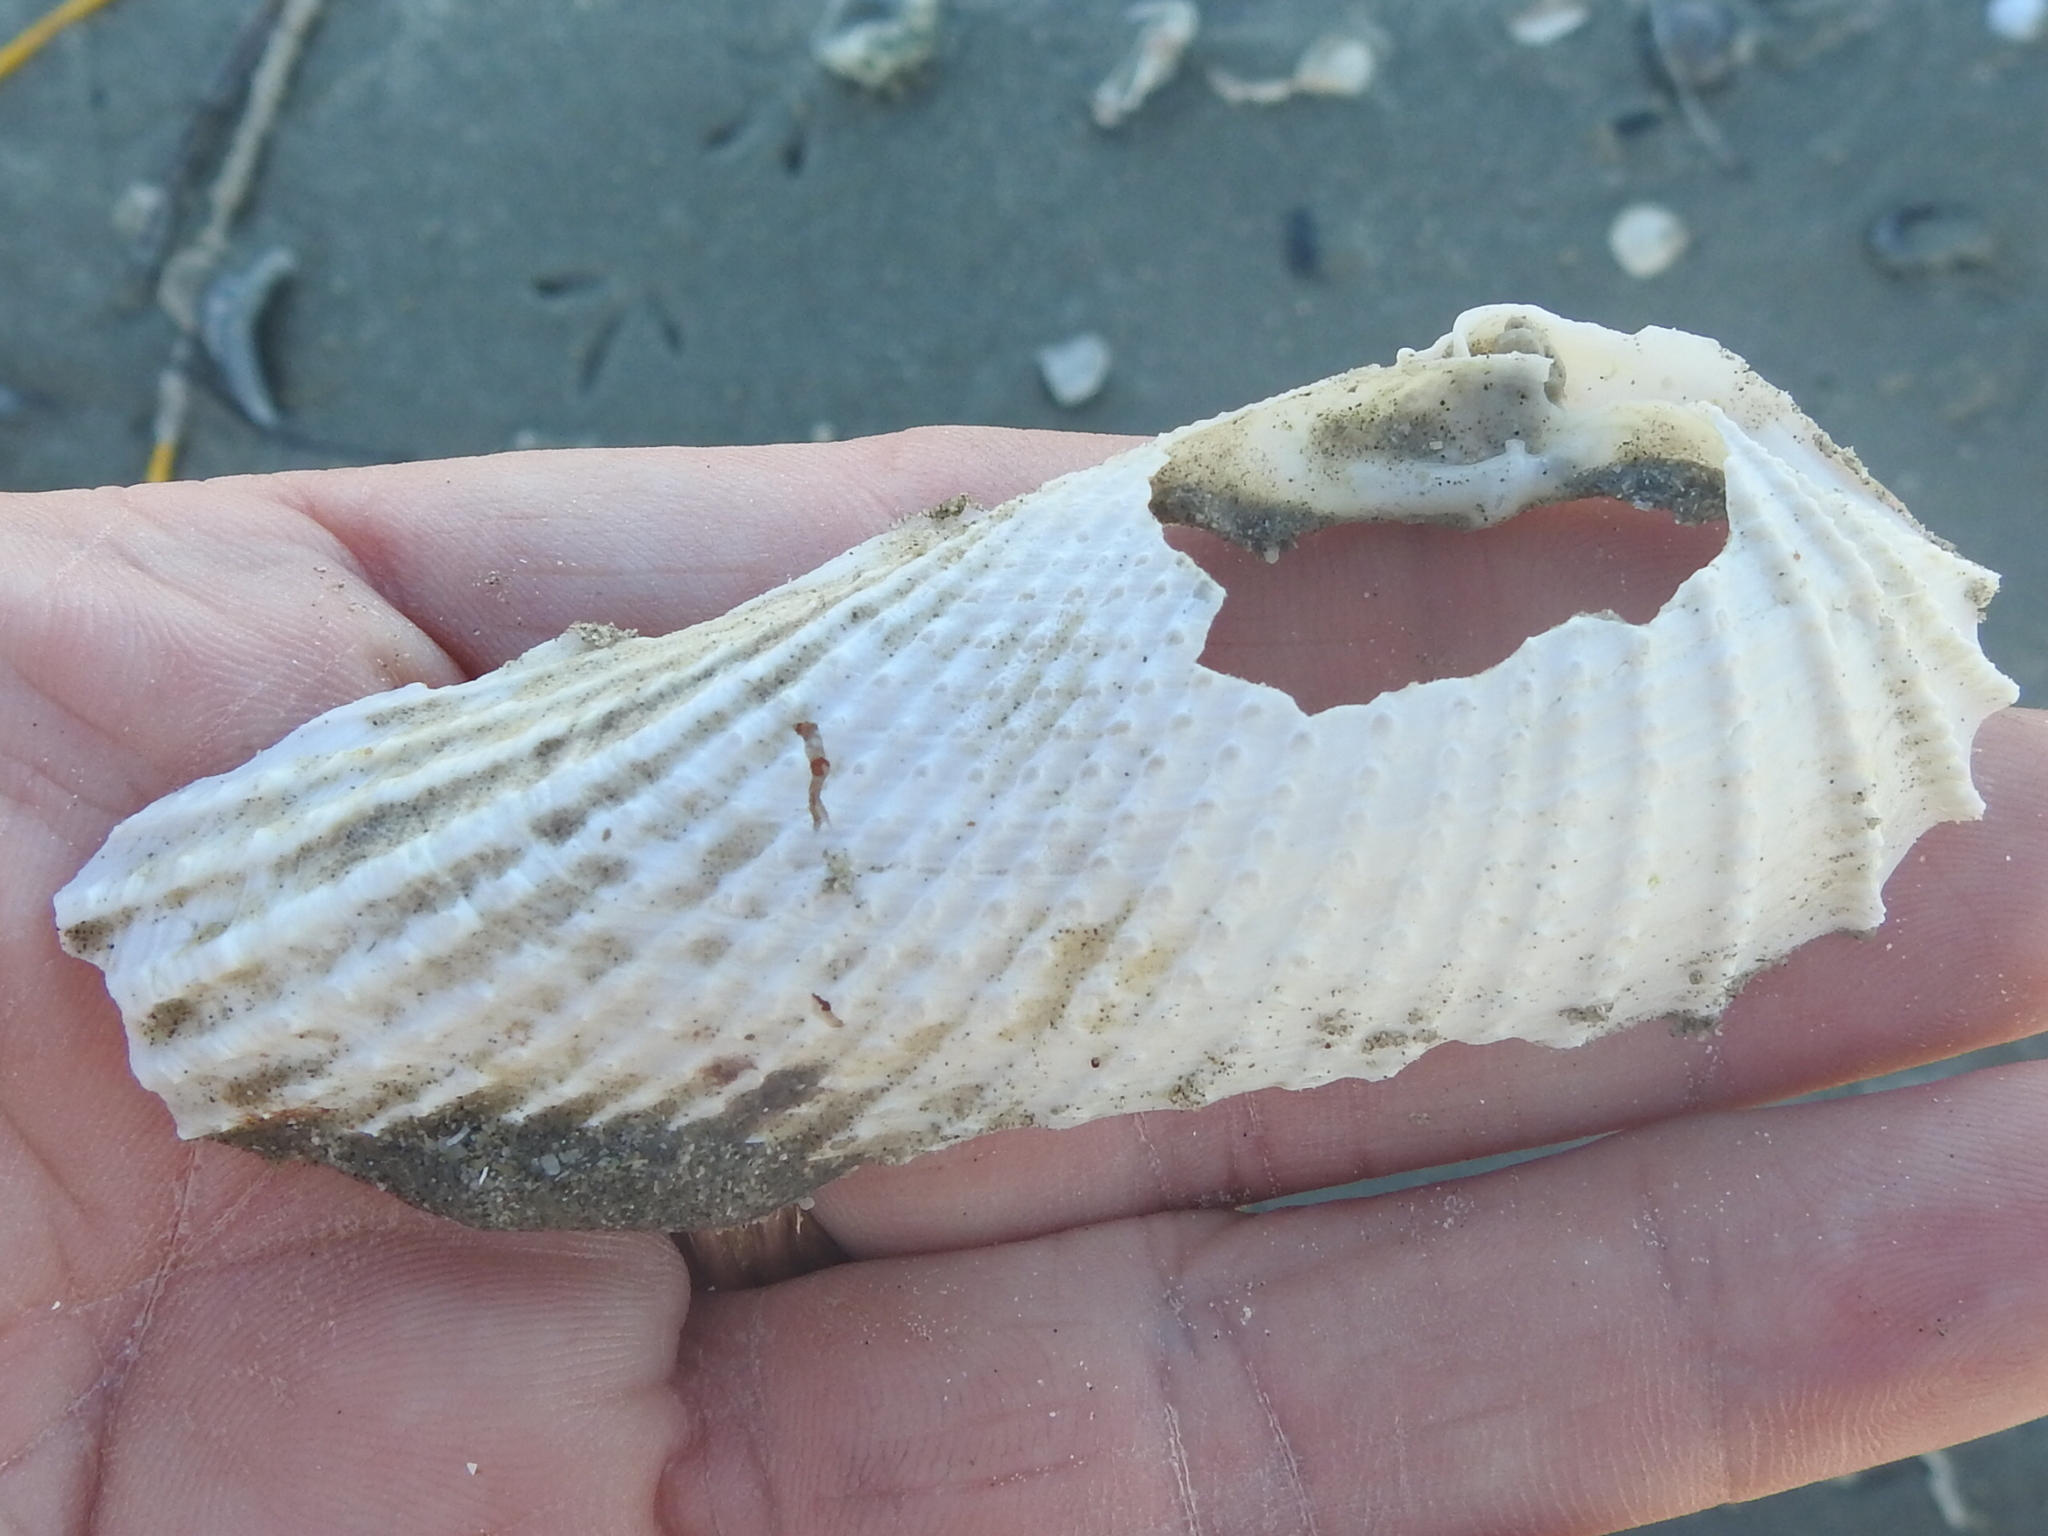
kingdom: Animalia
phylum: Mollusca
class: Bivalvia
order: Myida
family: Pholadidae
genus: Cyrtopleura
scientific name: Cyrtopleura costata
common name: Angel wing
